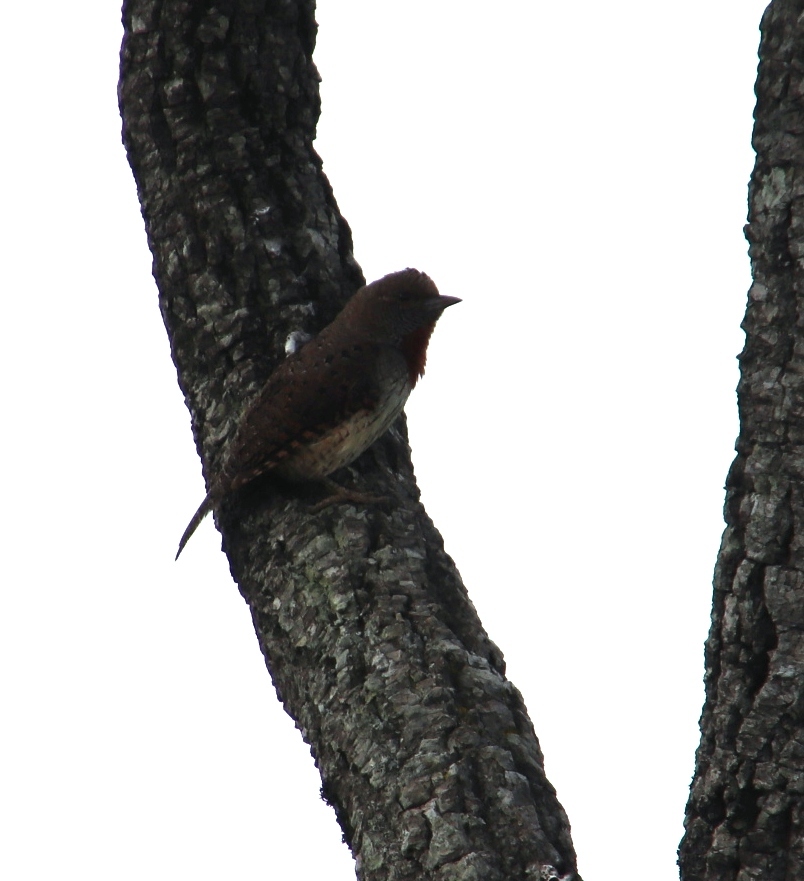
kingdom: Animalia
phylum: Chordata
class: Aves
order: Piciformes
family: Picidae
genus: Jynx
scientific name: Jynx ruficollis
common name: Red-throated wryneck
